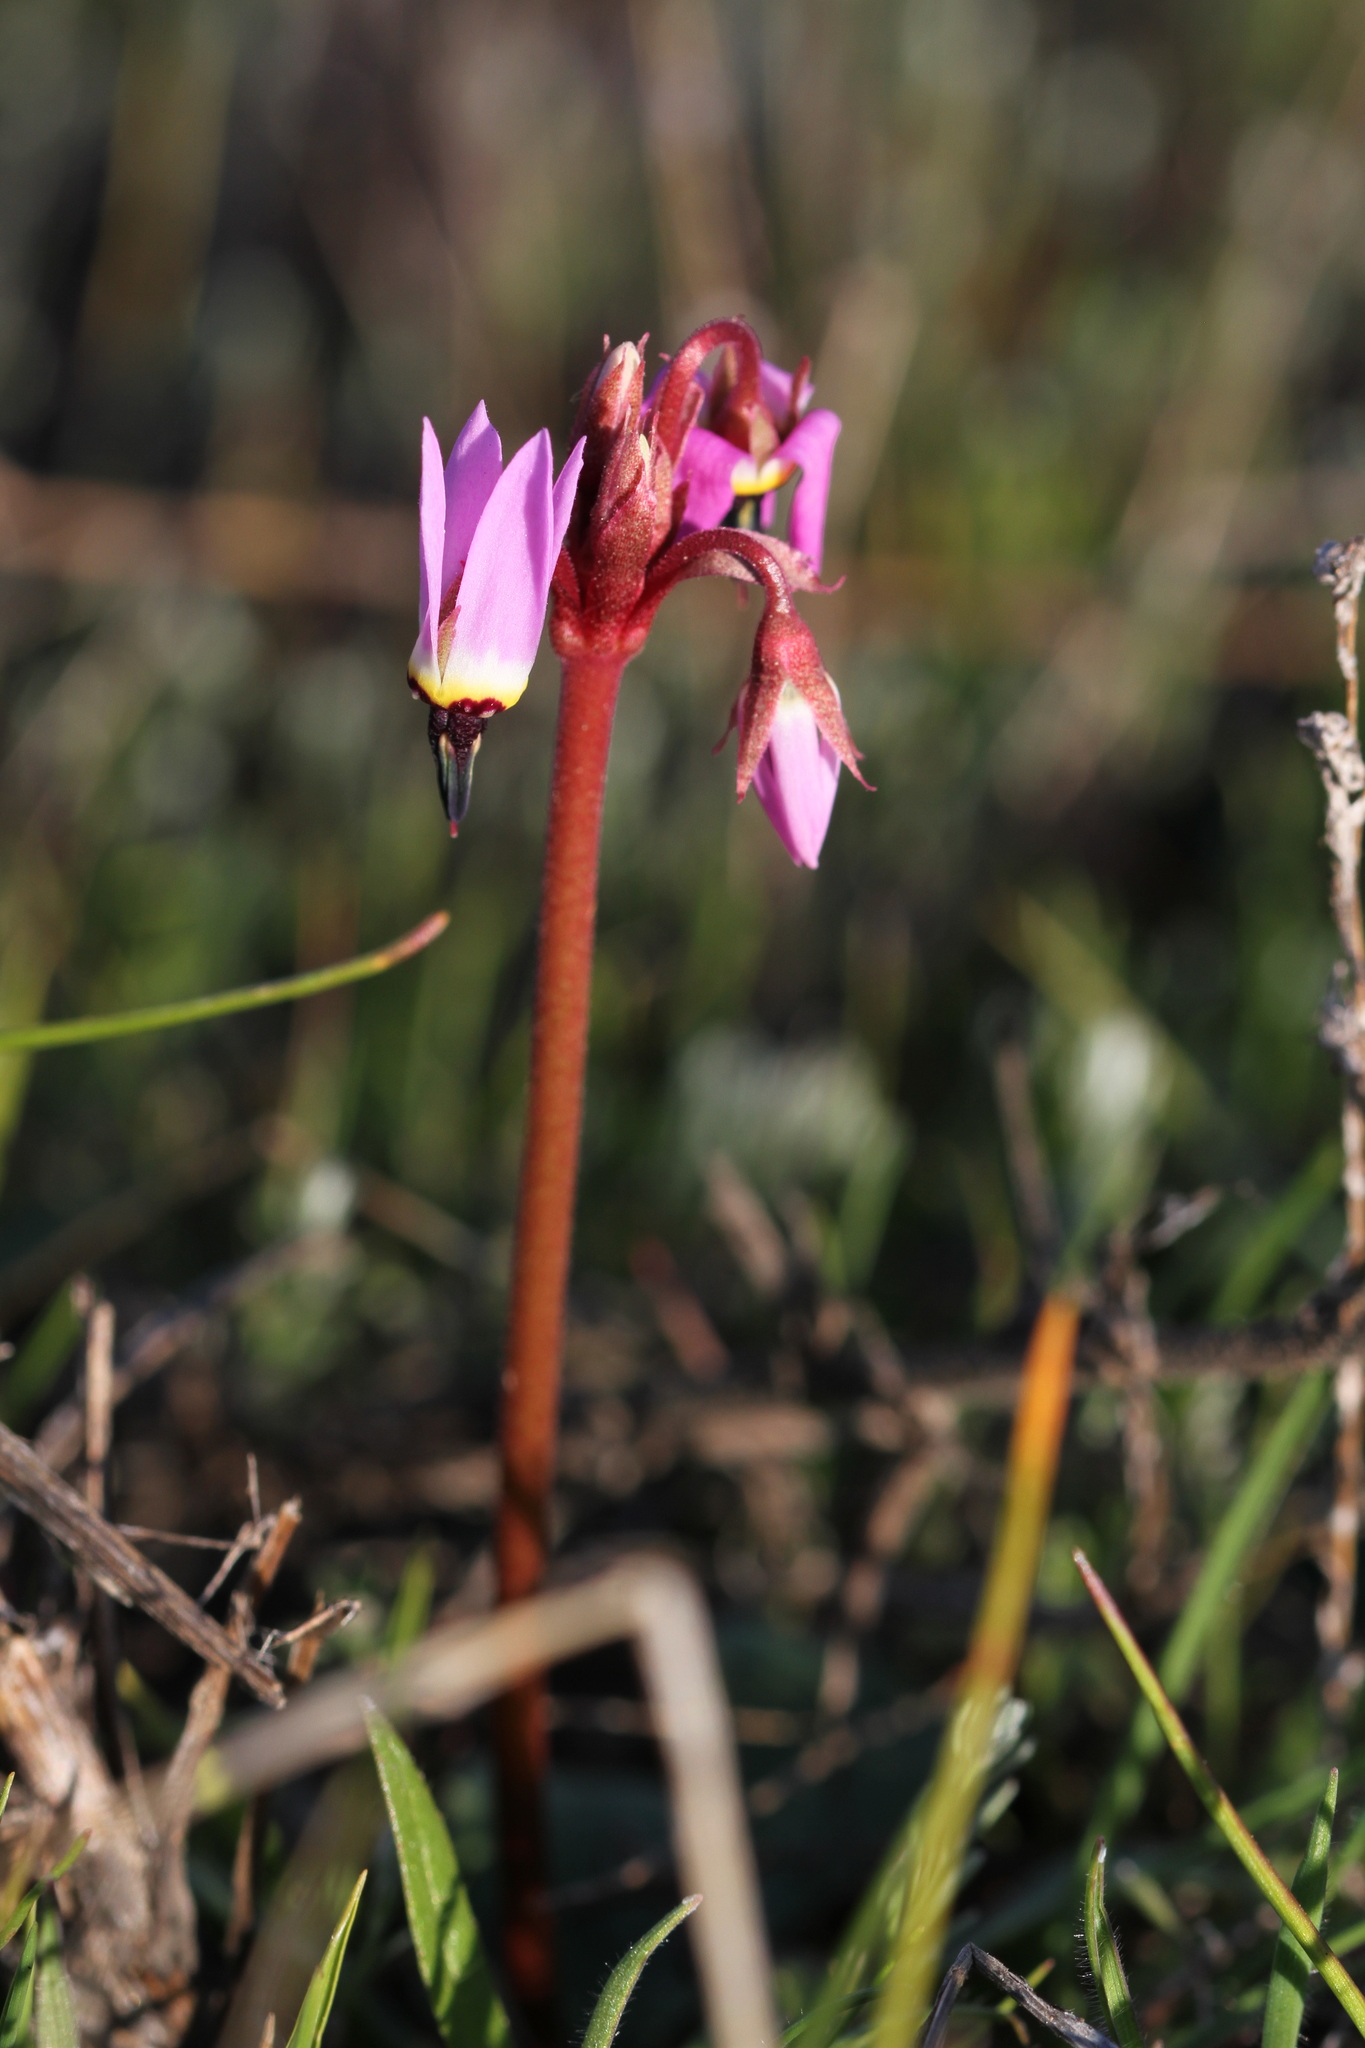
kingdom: Plantae
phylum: Tracheophyta
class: Magnoliopsida
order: Ericales
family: Primulaceae
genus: Dodecatheon
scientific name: Dodecatheon hendersonii
